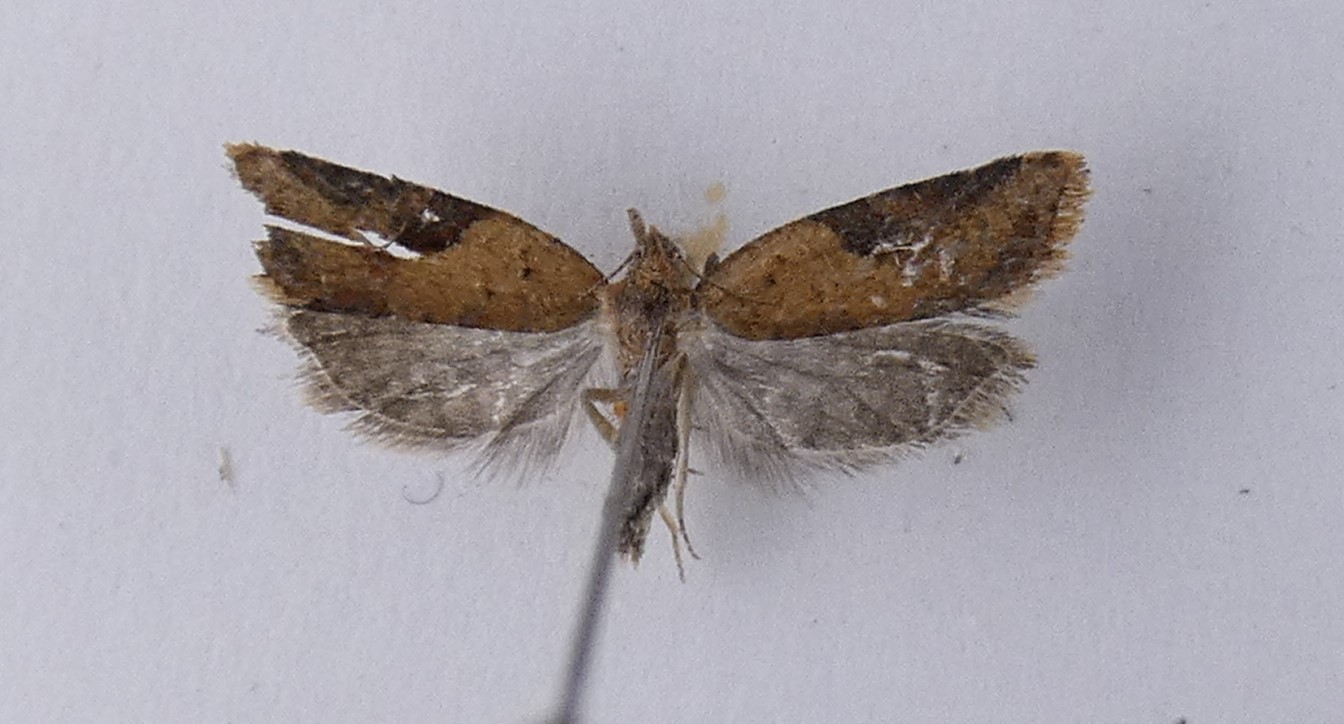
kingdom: Animalia
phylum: Arthropoda
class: Insecta
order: Lepidoptera
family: Tortricidae
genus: Capua
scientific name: Capua semiferana
